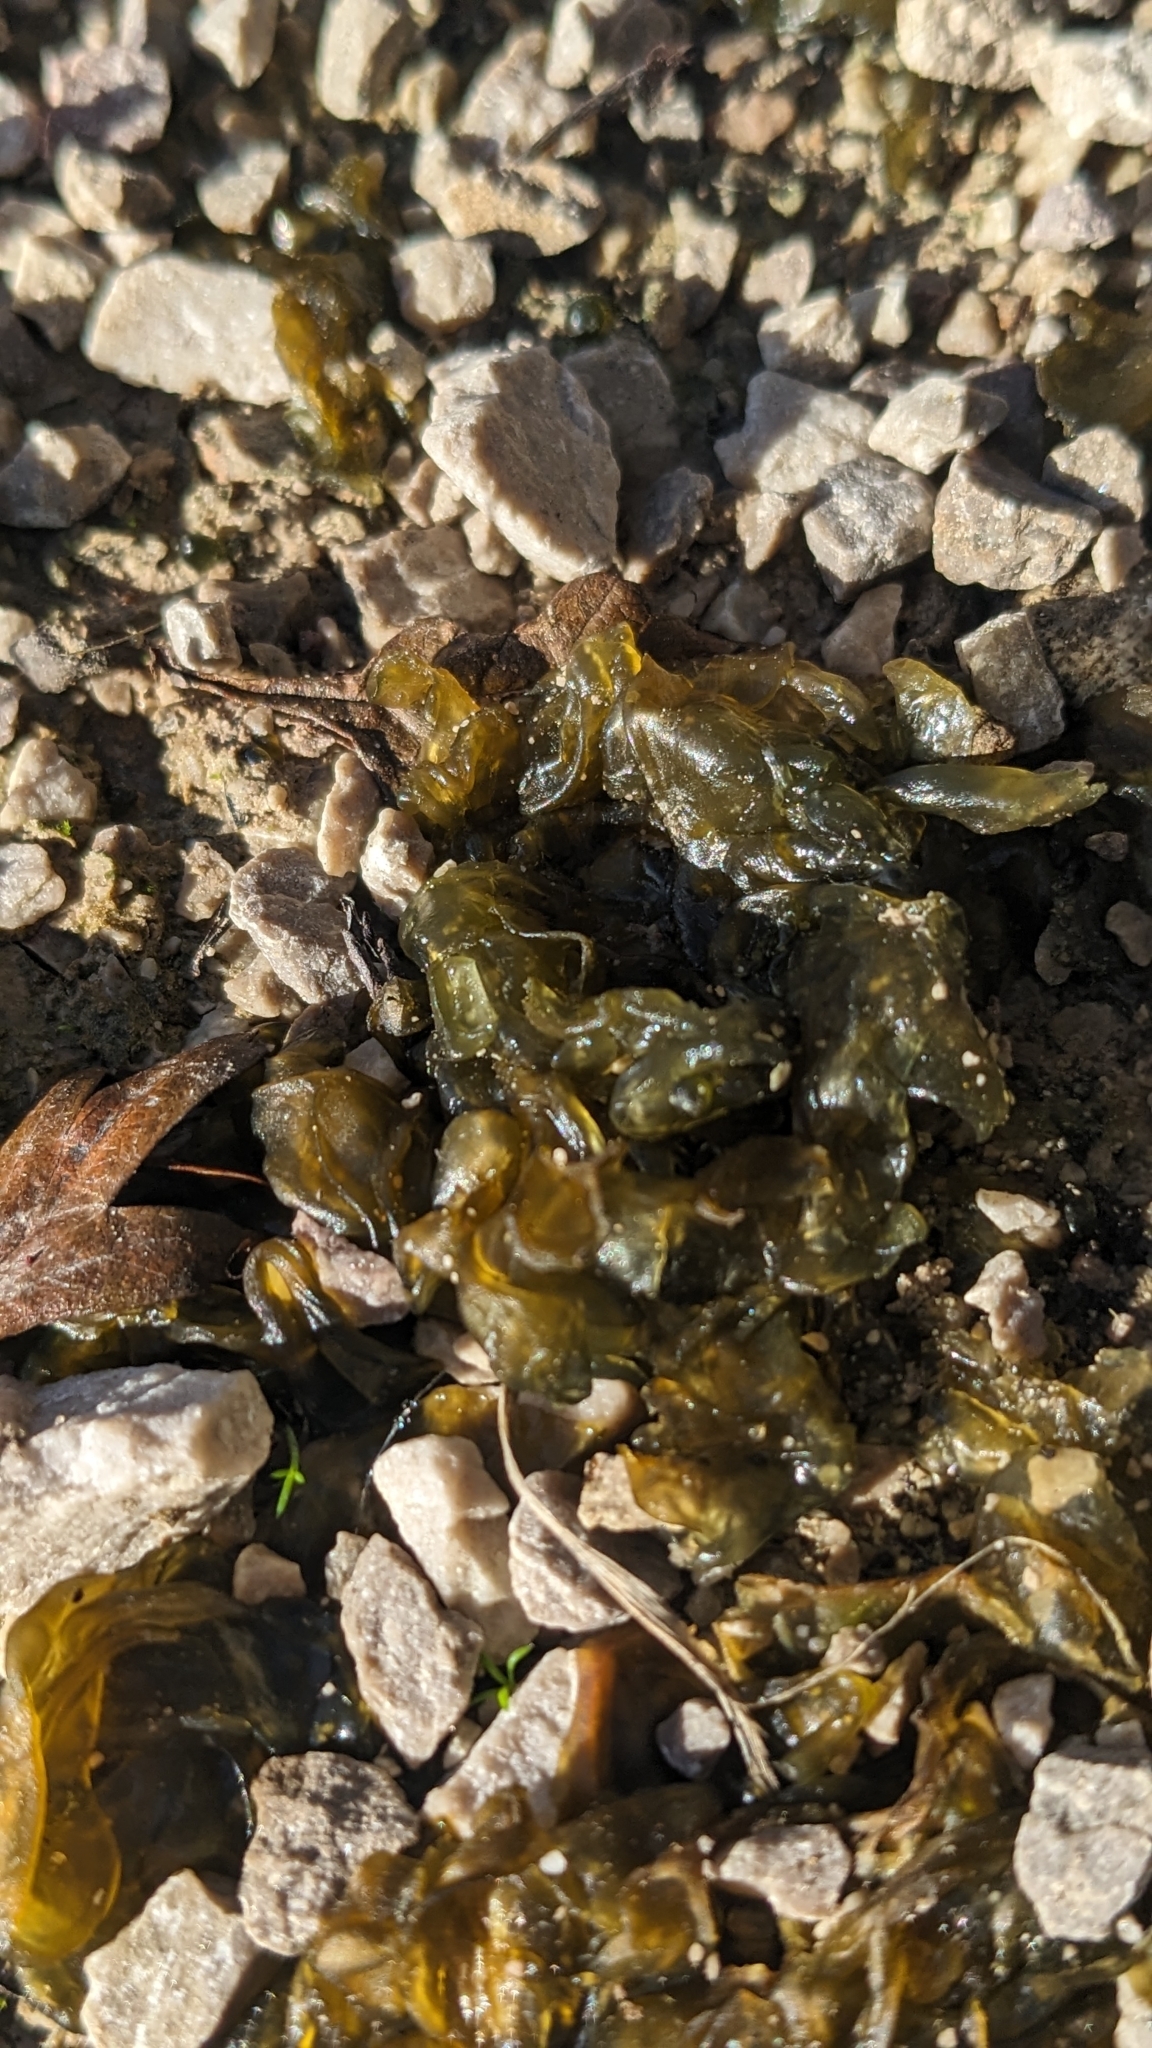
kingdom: Bacteria
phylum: Cyanobacteria
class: Cyanobacteriia
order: Cyanobacteriales
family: Nostocaceae
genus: Nostoc
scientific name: Nostoc commune
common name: Star jelly
